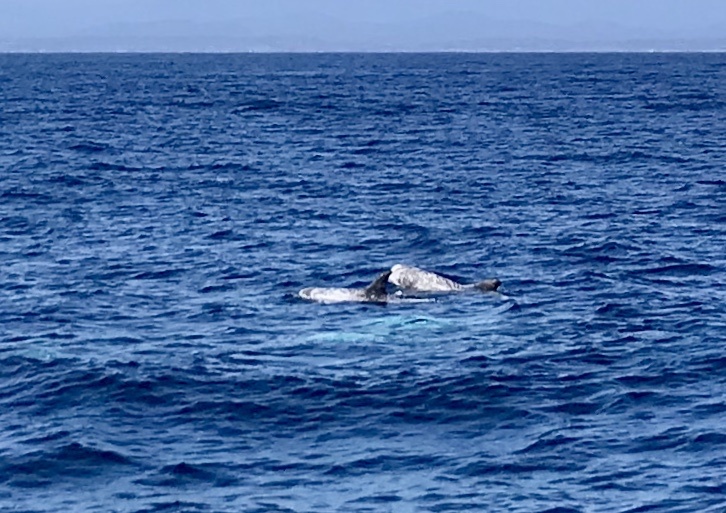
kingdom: Animalia
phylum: Chordata
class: Mammalia
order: Cetacea
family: Delphinidae
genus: Grampus
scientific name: Grampus griseus
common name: Risso's dolphin
